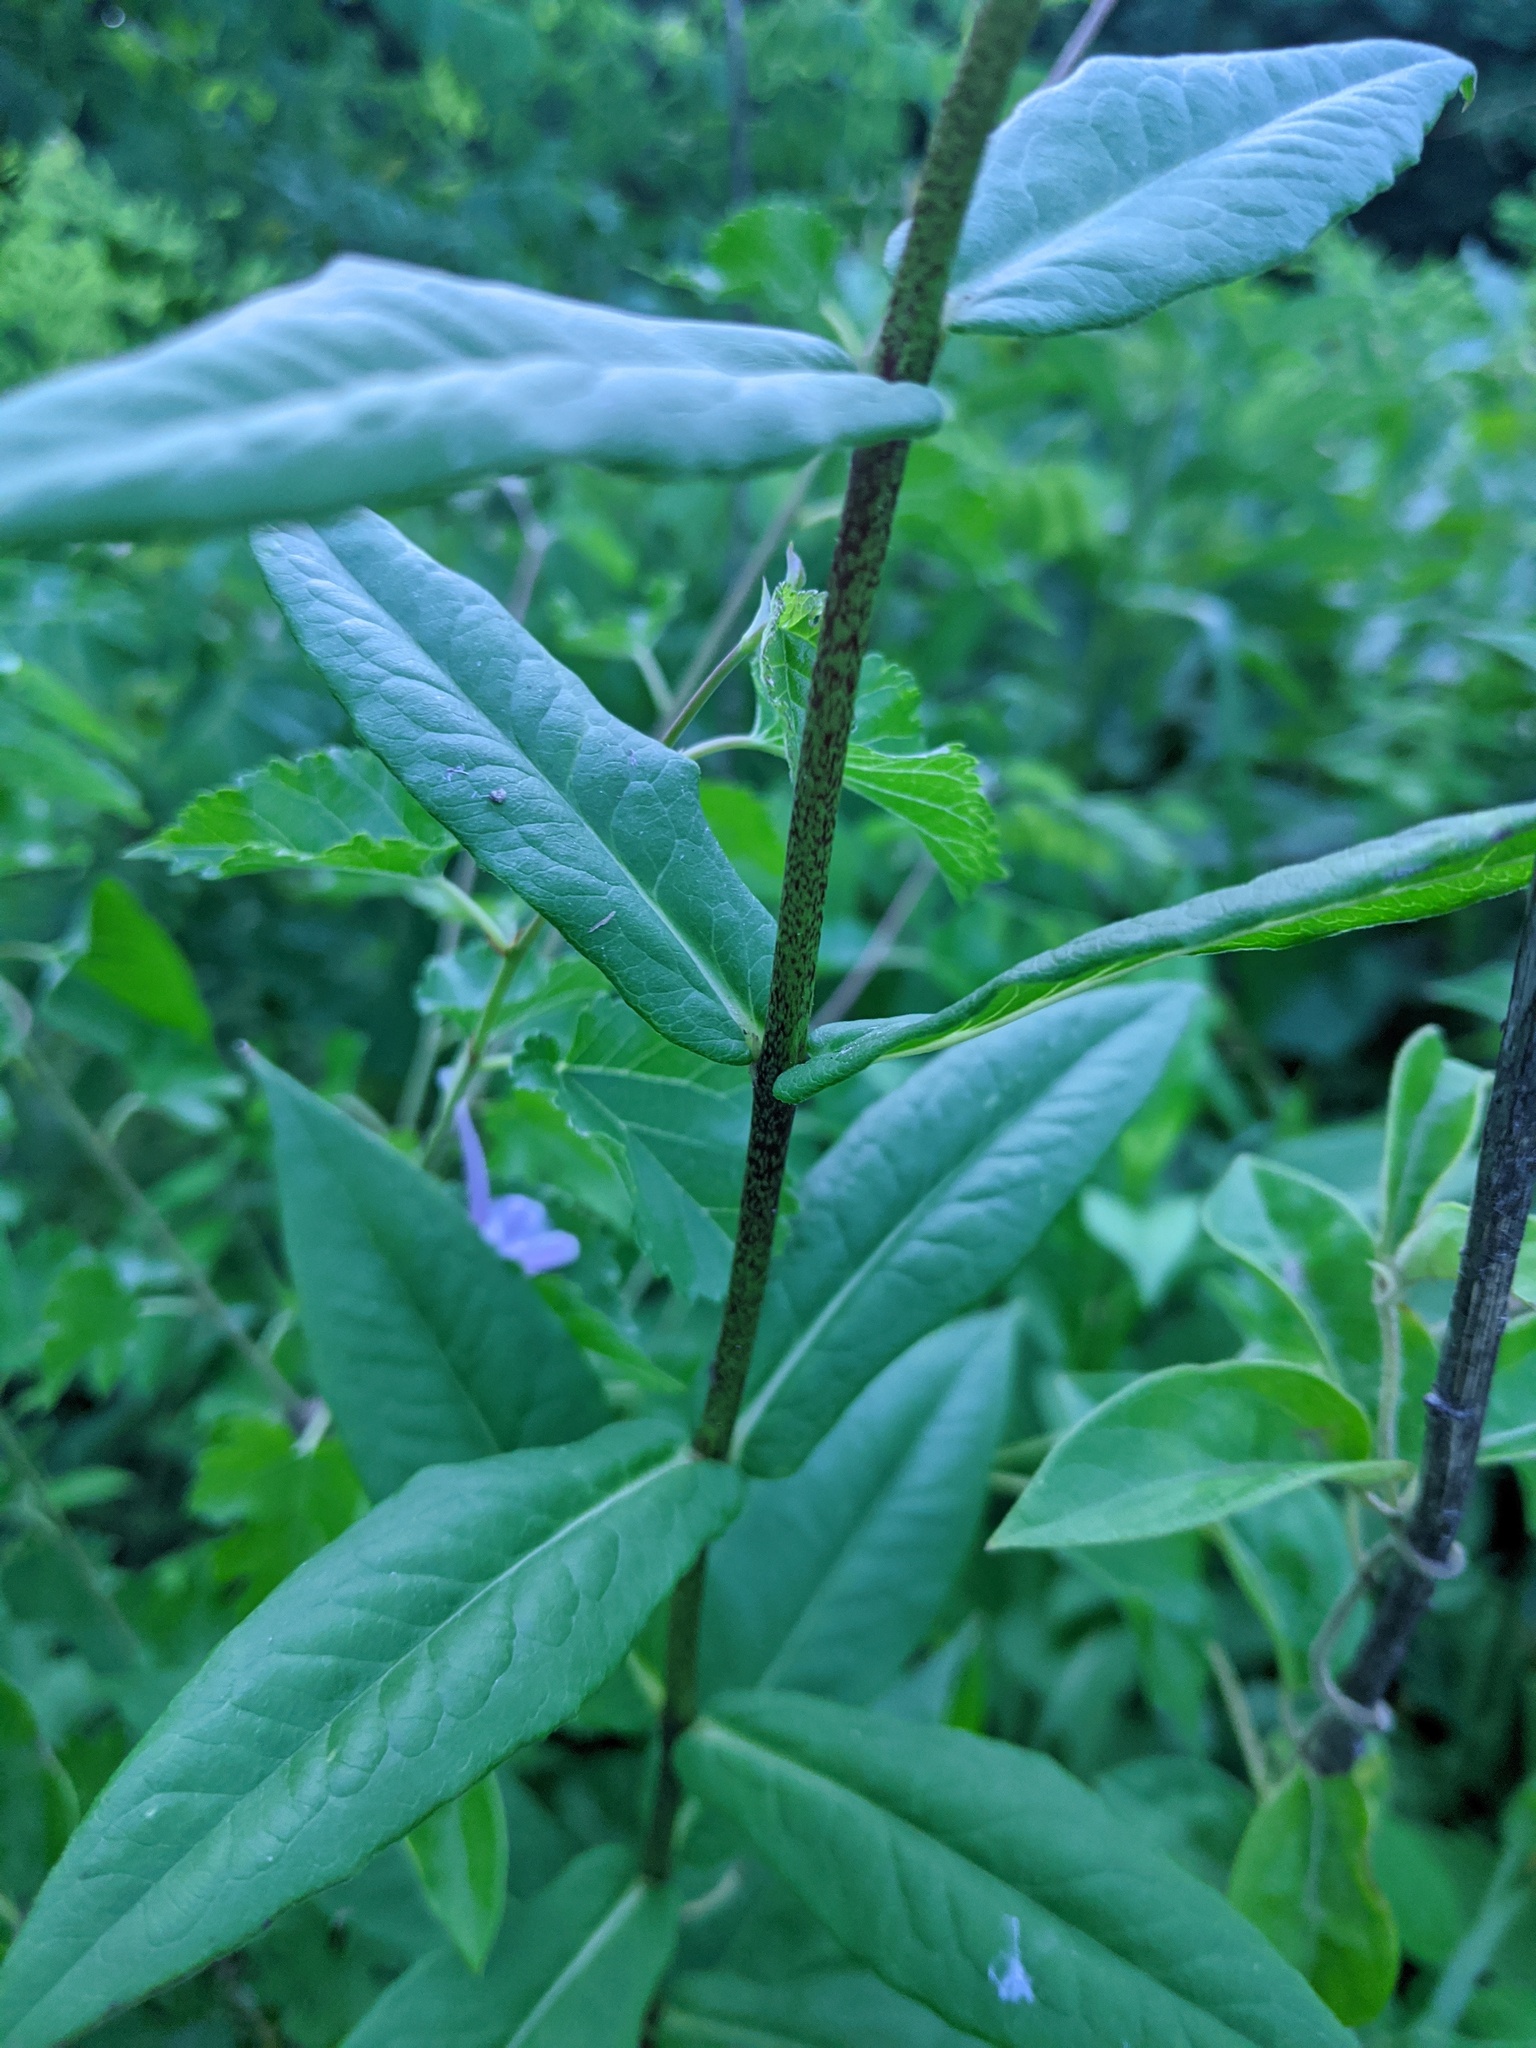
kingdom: Plantae
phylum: Tracheophyta
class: Magnoliopsida
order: Ericales
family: Polemoniaceae
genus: Phlox
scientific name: Phlox paniculata
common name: Fall phlox
